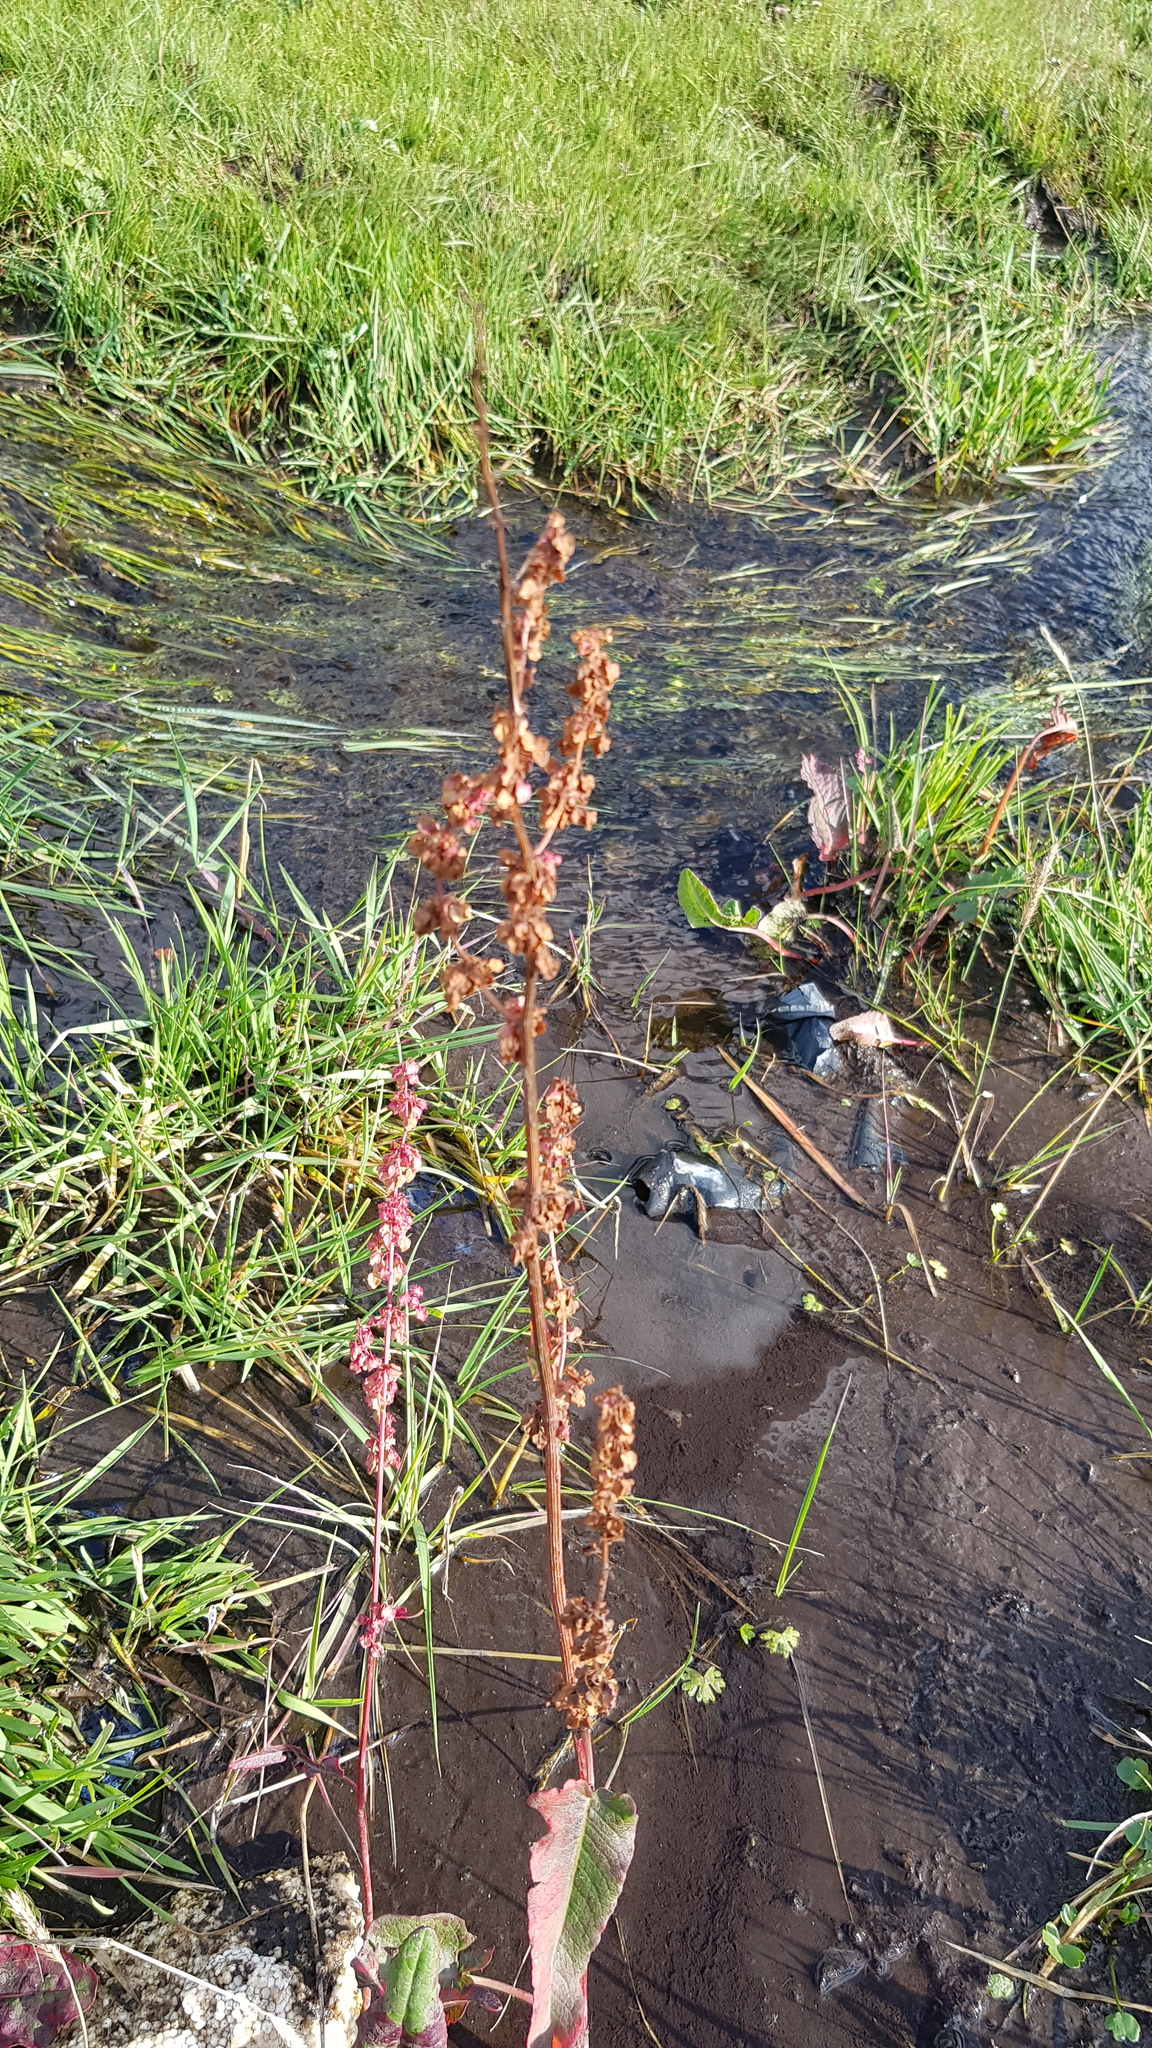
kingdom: Plantae
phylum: Tracheophyta
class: Magnoliopsida
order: Caryophyllales
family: Polygonaceae
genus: Rumex
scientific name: Rumex aquaticus
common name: Scottish dock
